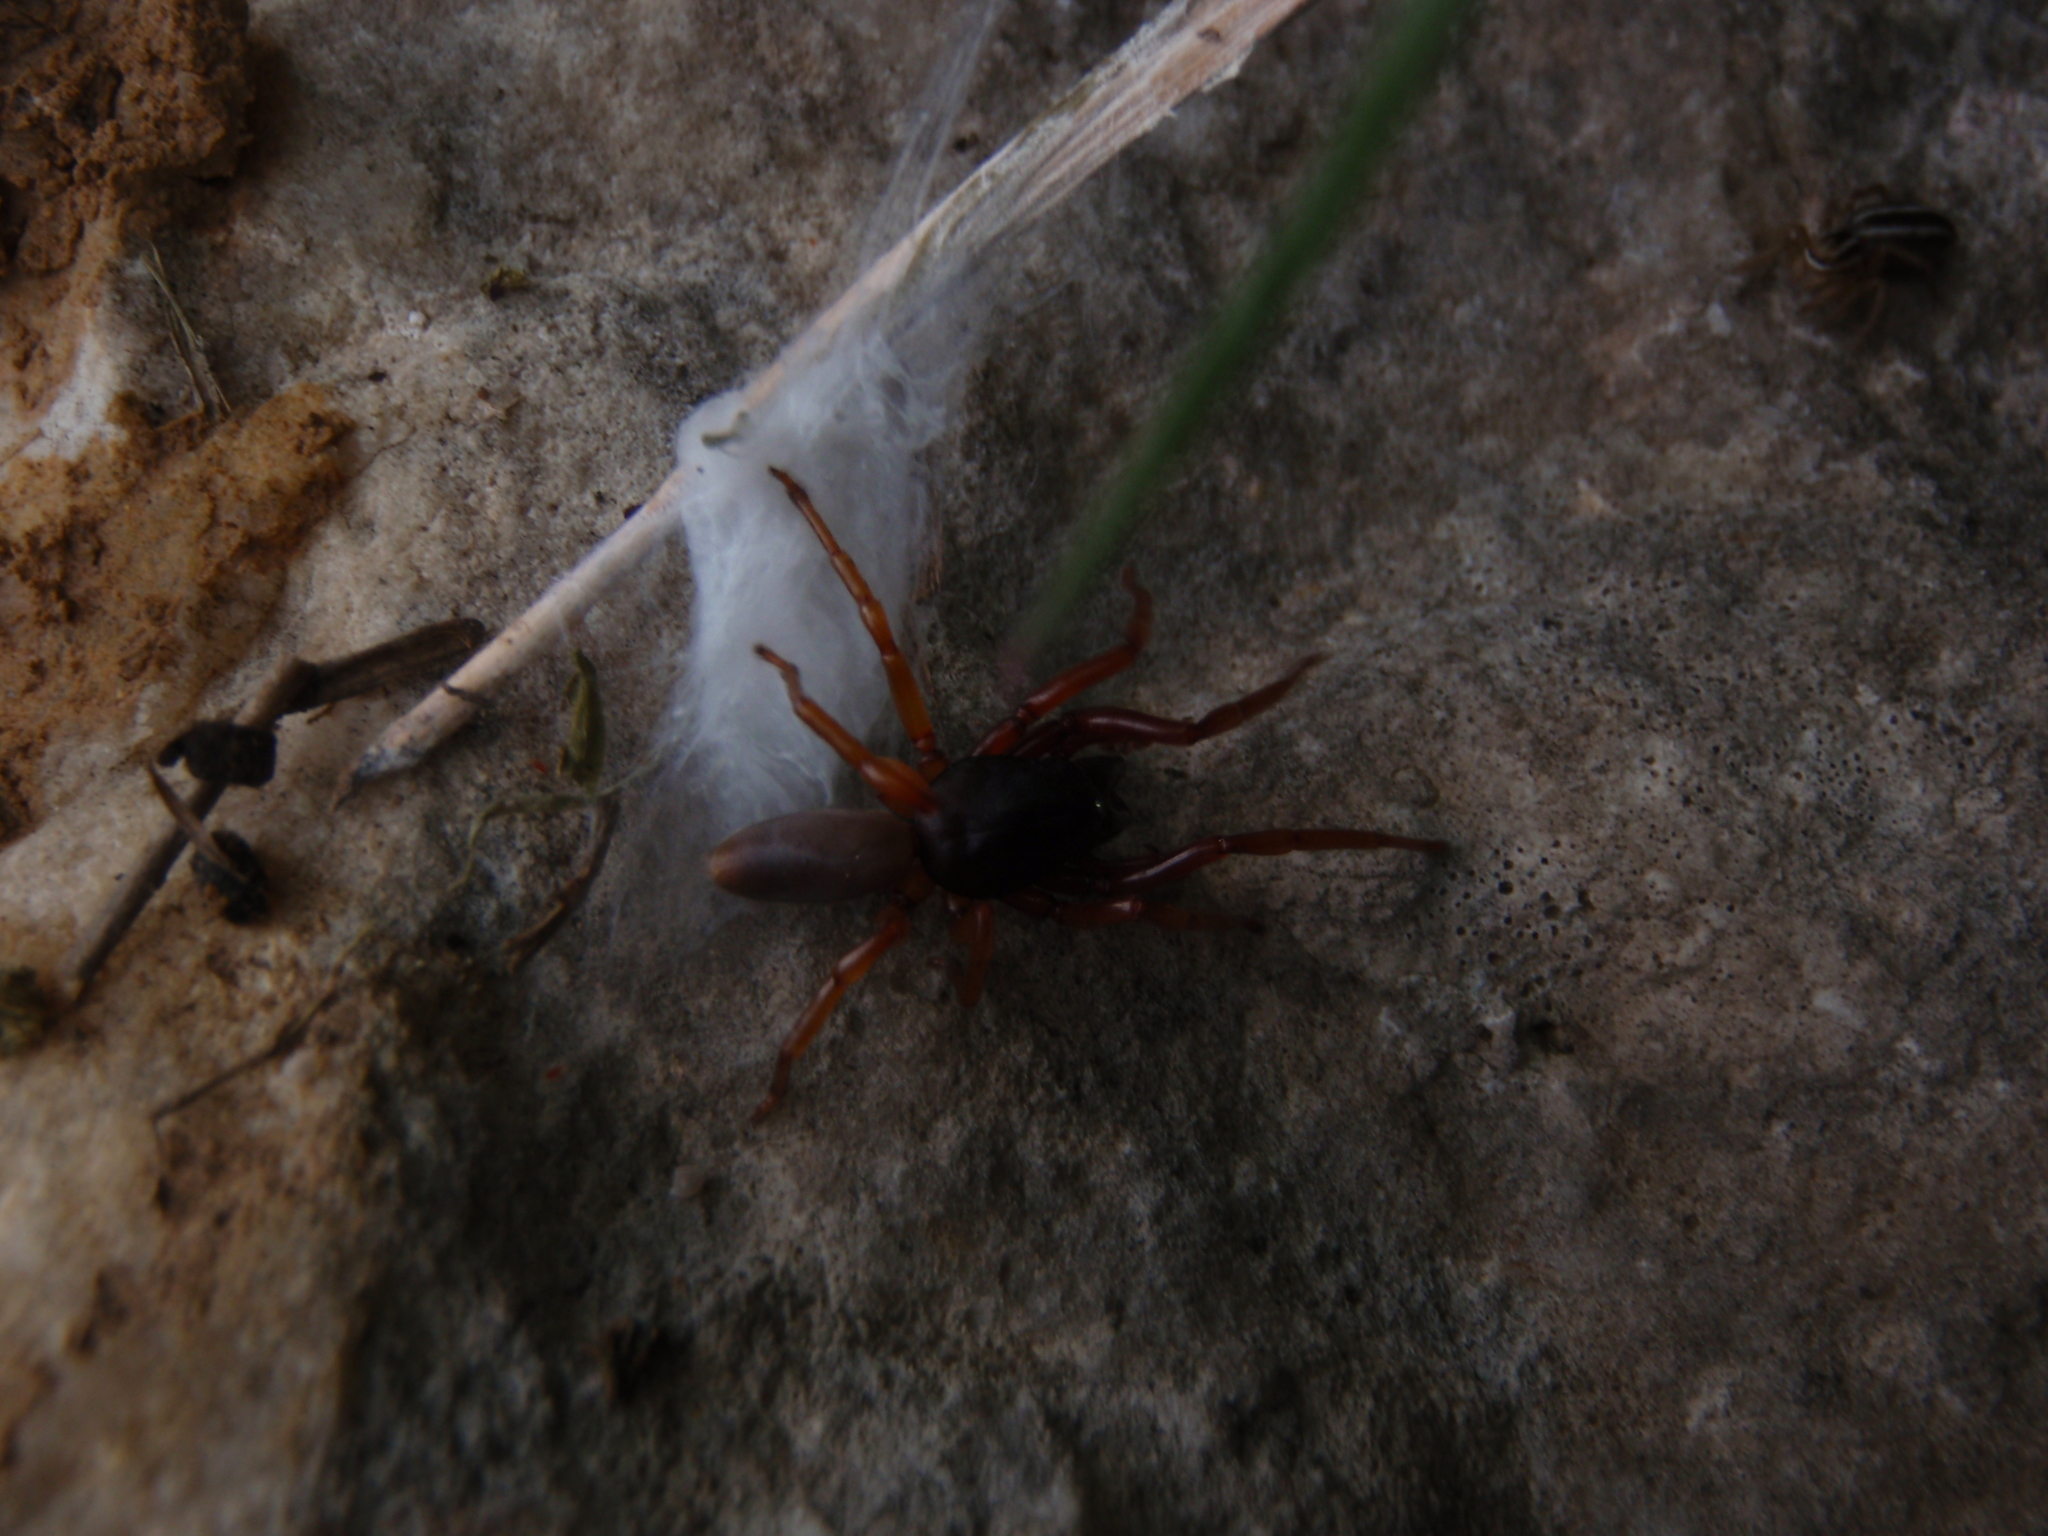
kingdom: Animalia
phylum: Arthropoda
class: Arachnida
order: Araneae
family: Dysderidae
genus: Dysdera
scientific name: Dysdera crocata
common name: Woodlouse spider
